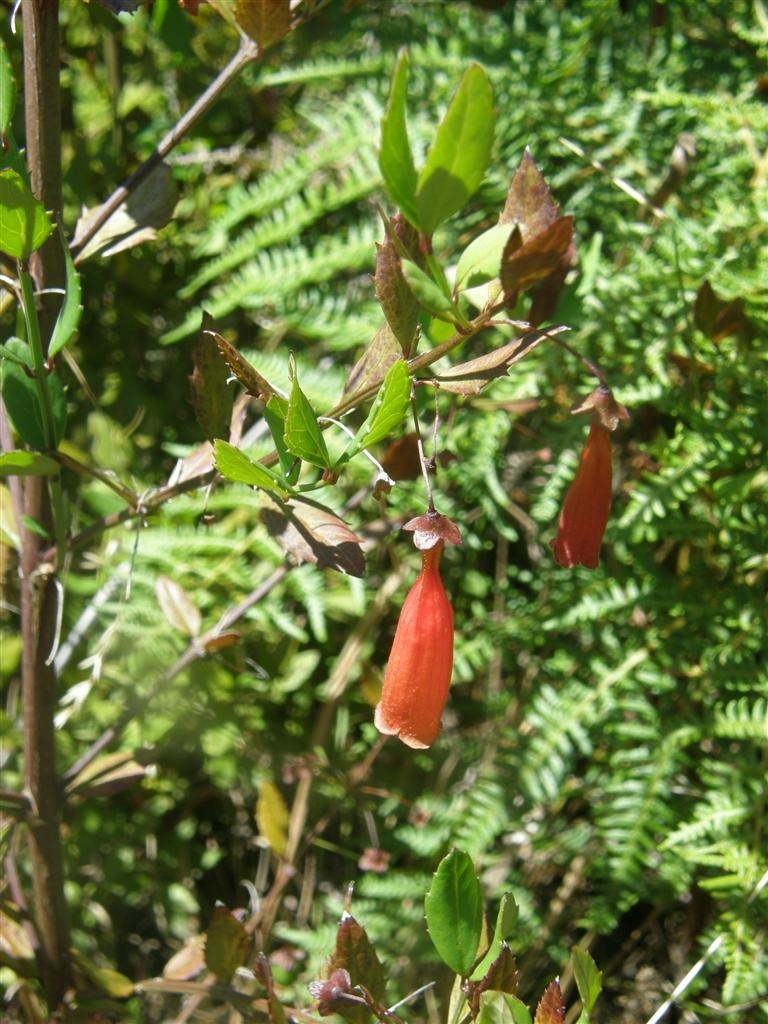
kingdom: Plantae
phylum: Tracheophyta
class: Magnoliopsida
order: Lamiales
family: Stilbaceae
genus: Halleria
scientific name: Halleria elliptica
